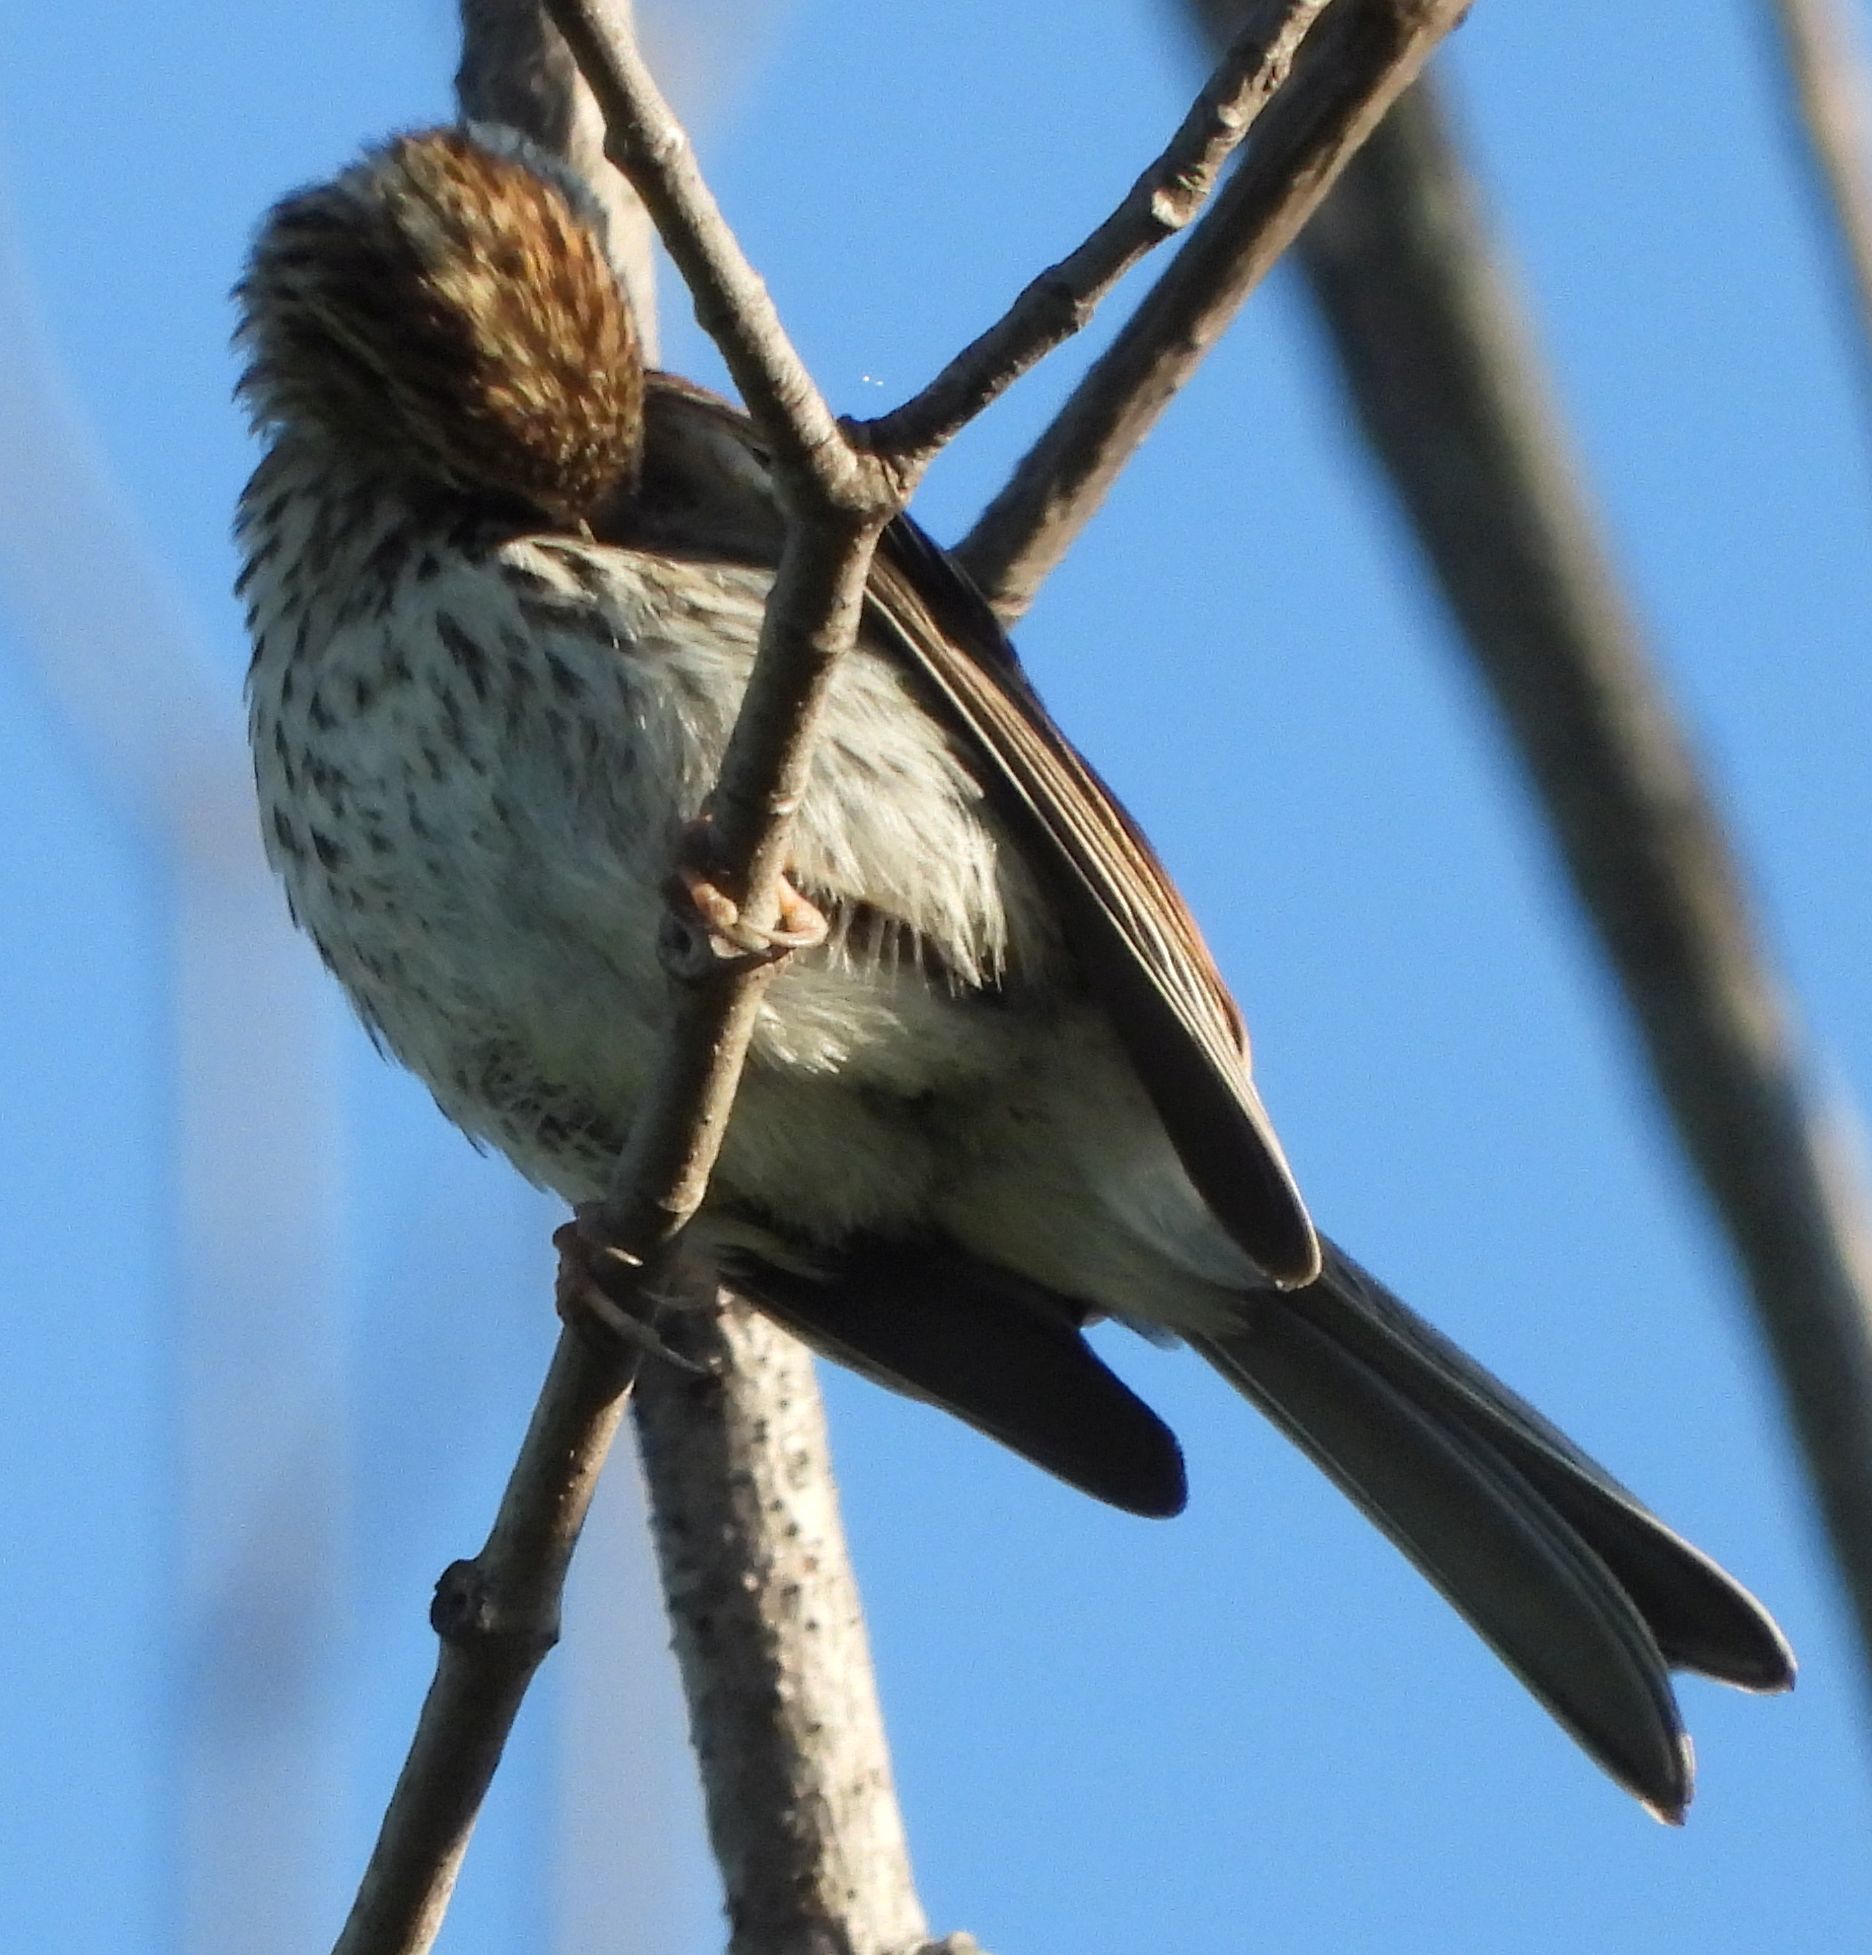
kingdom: Animalia
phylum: Chordata
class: Aves
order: Passeriformes
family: Passerellidae
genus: Melospiza
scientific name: Melospiza melodia
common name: Song sparrow
